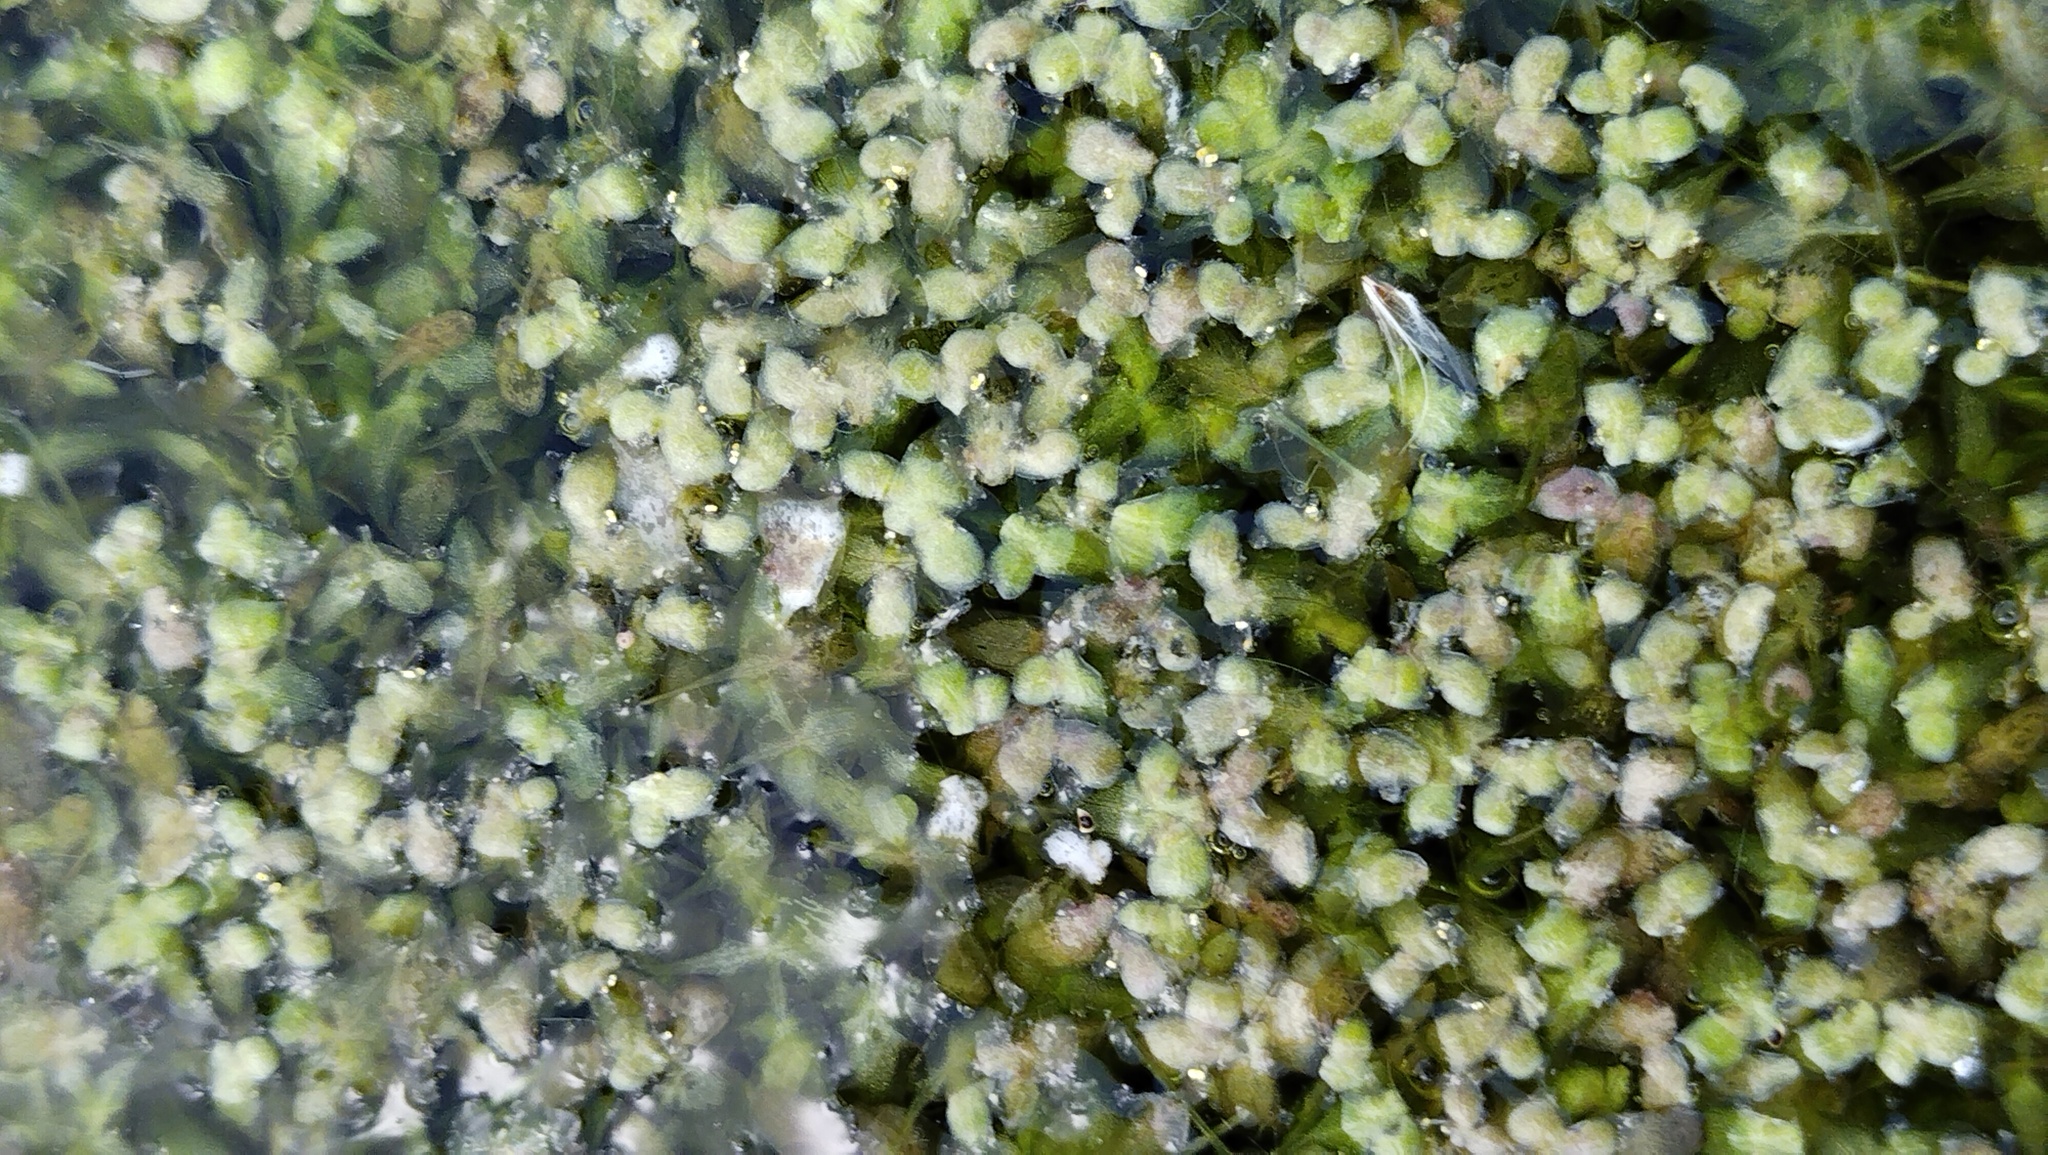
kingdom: Plantae
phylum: Tracheophyta
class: Liliopsida
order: Alismatales
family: Araceae
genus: Lemna
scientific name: Lemna trisulca
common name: Ivy-leaved duckweed
